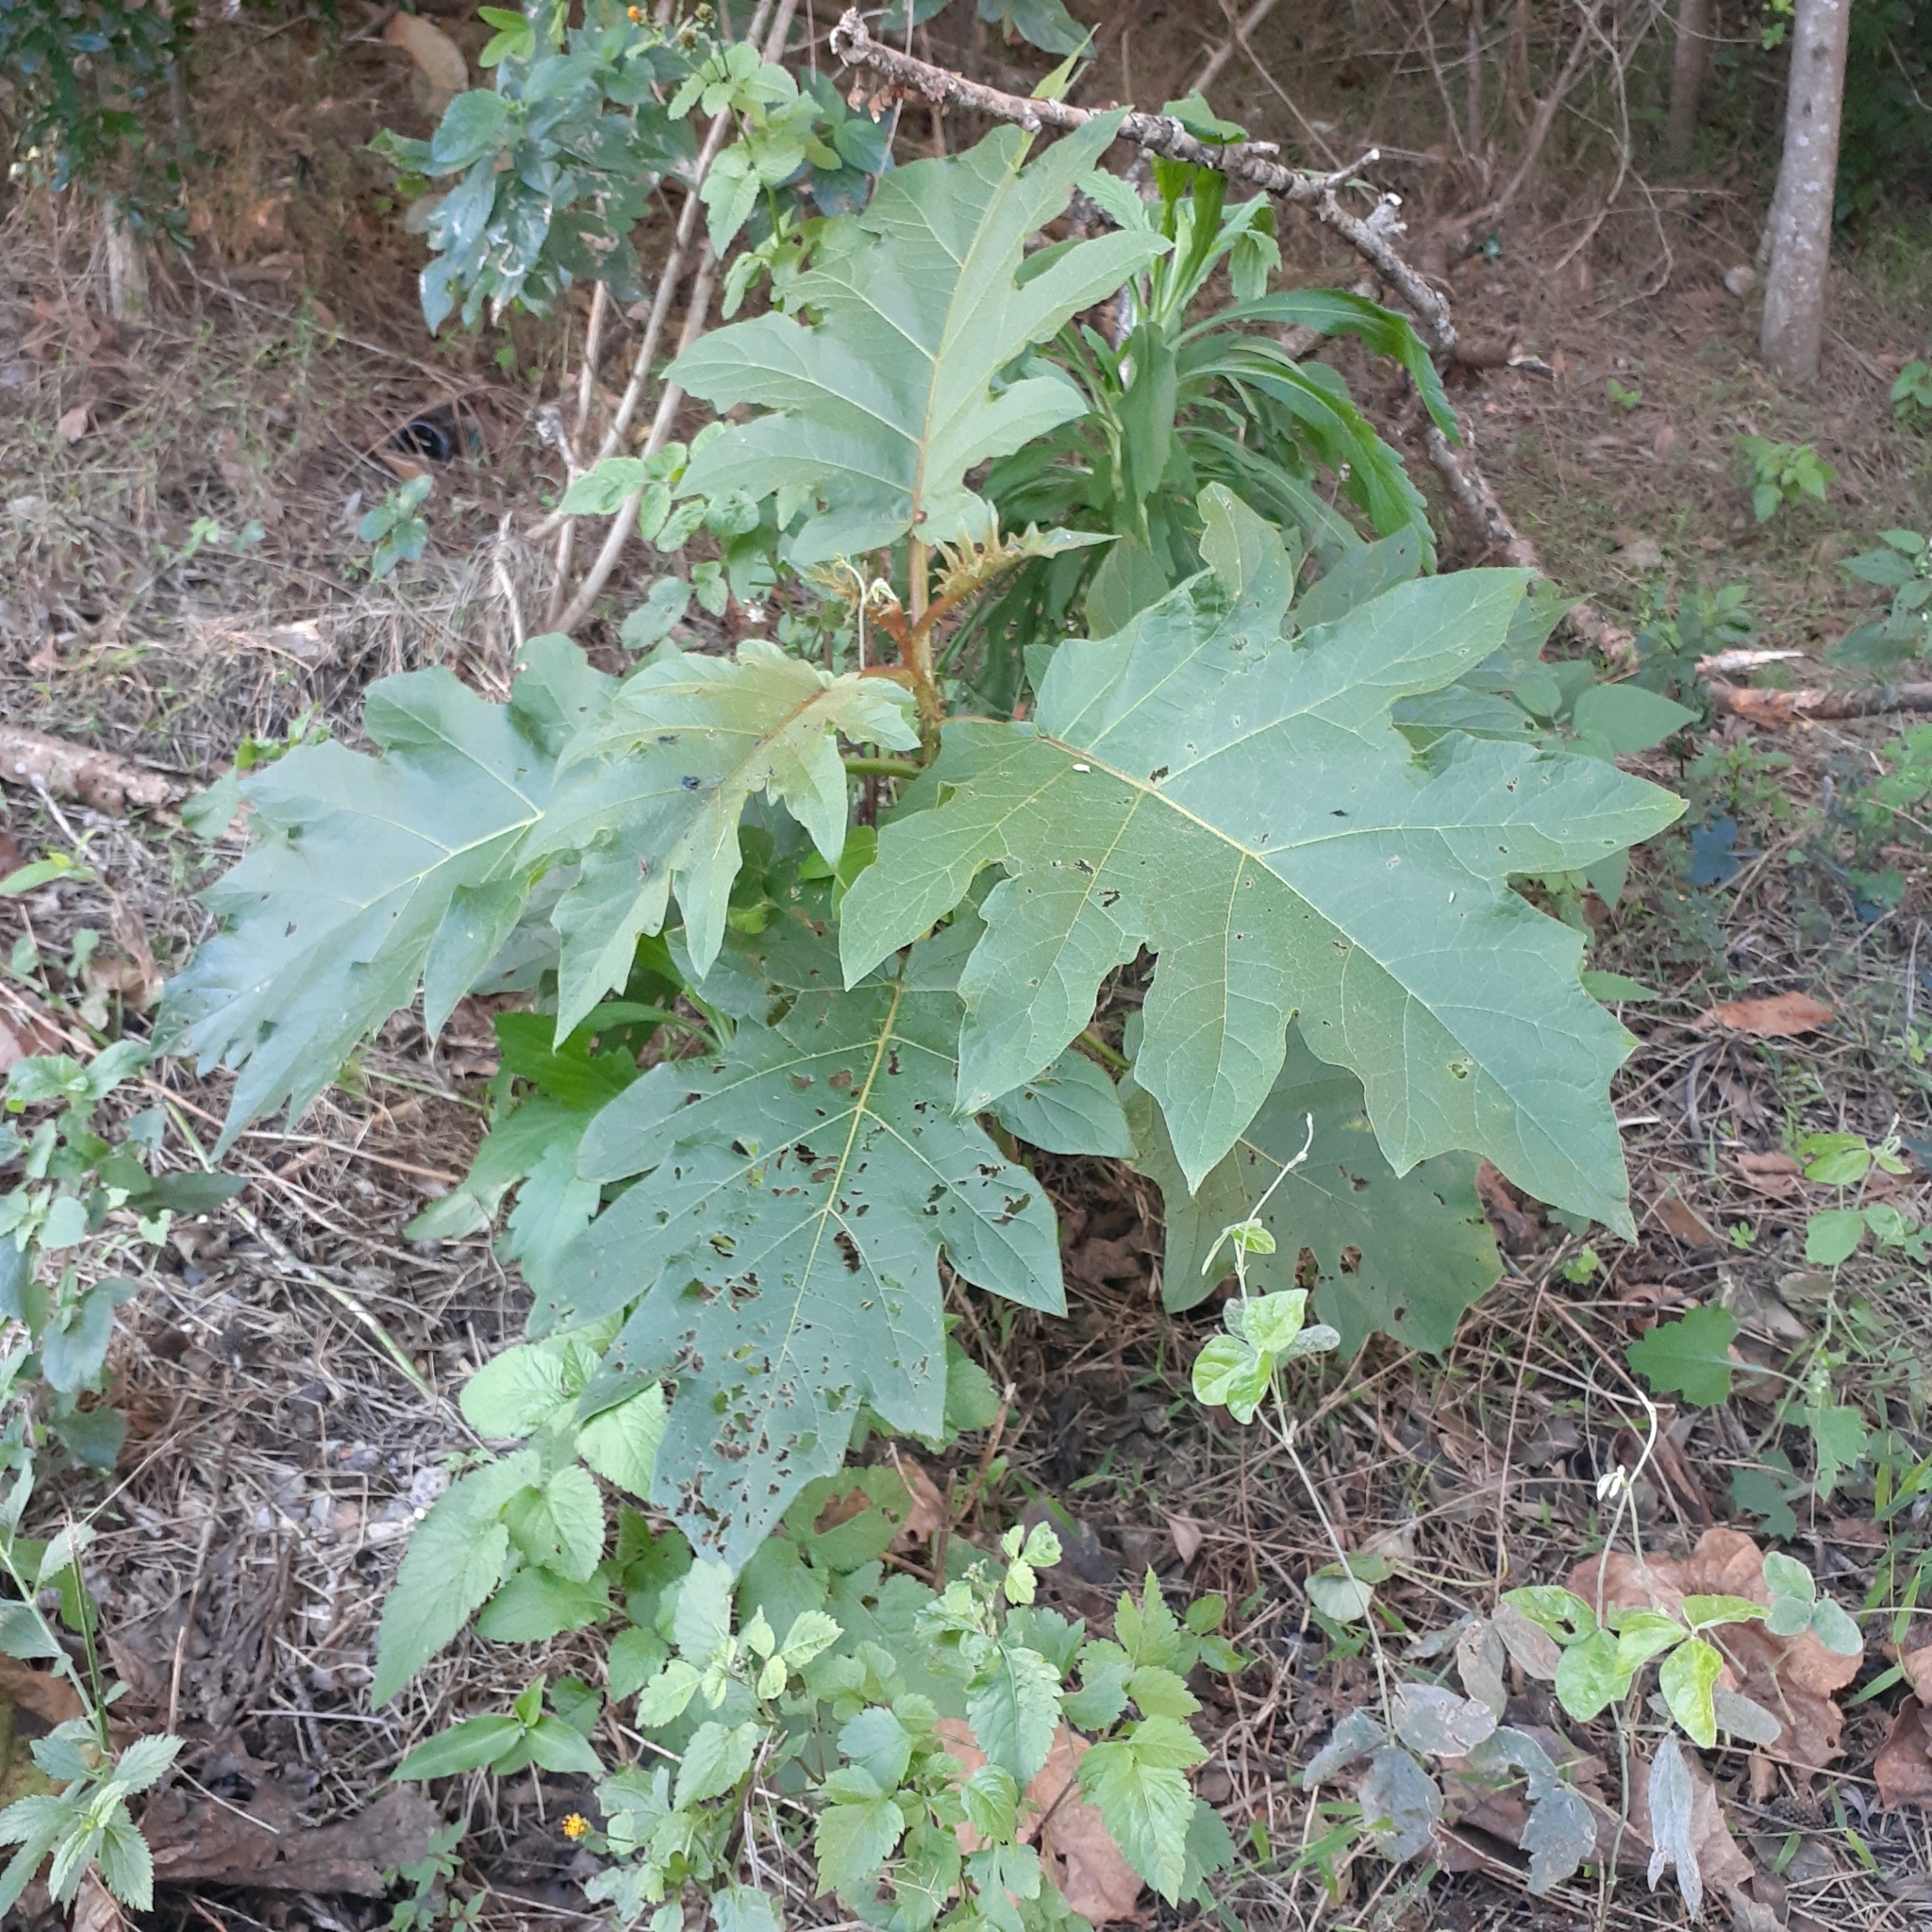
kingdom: Plantae
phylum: Tracheophyta
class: Magnoliopsida
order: Solanales
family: Solanaceae
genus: Solanum
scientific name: Solanum chrysotrichum
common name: Nightshade
